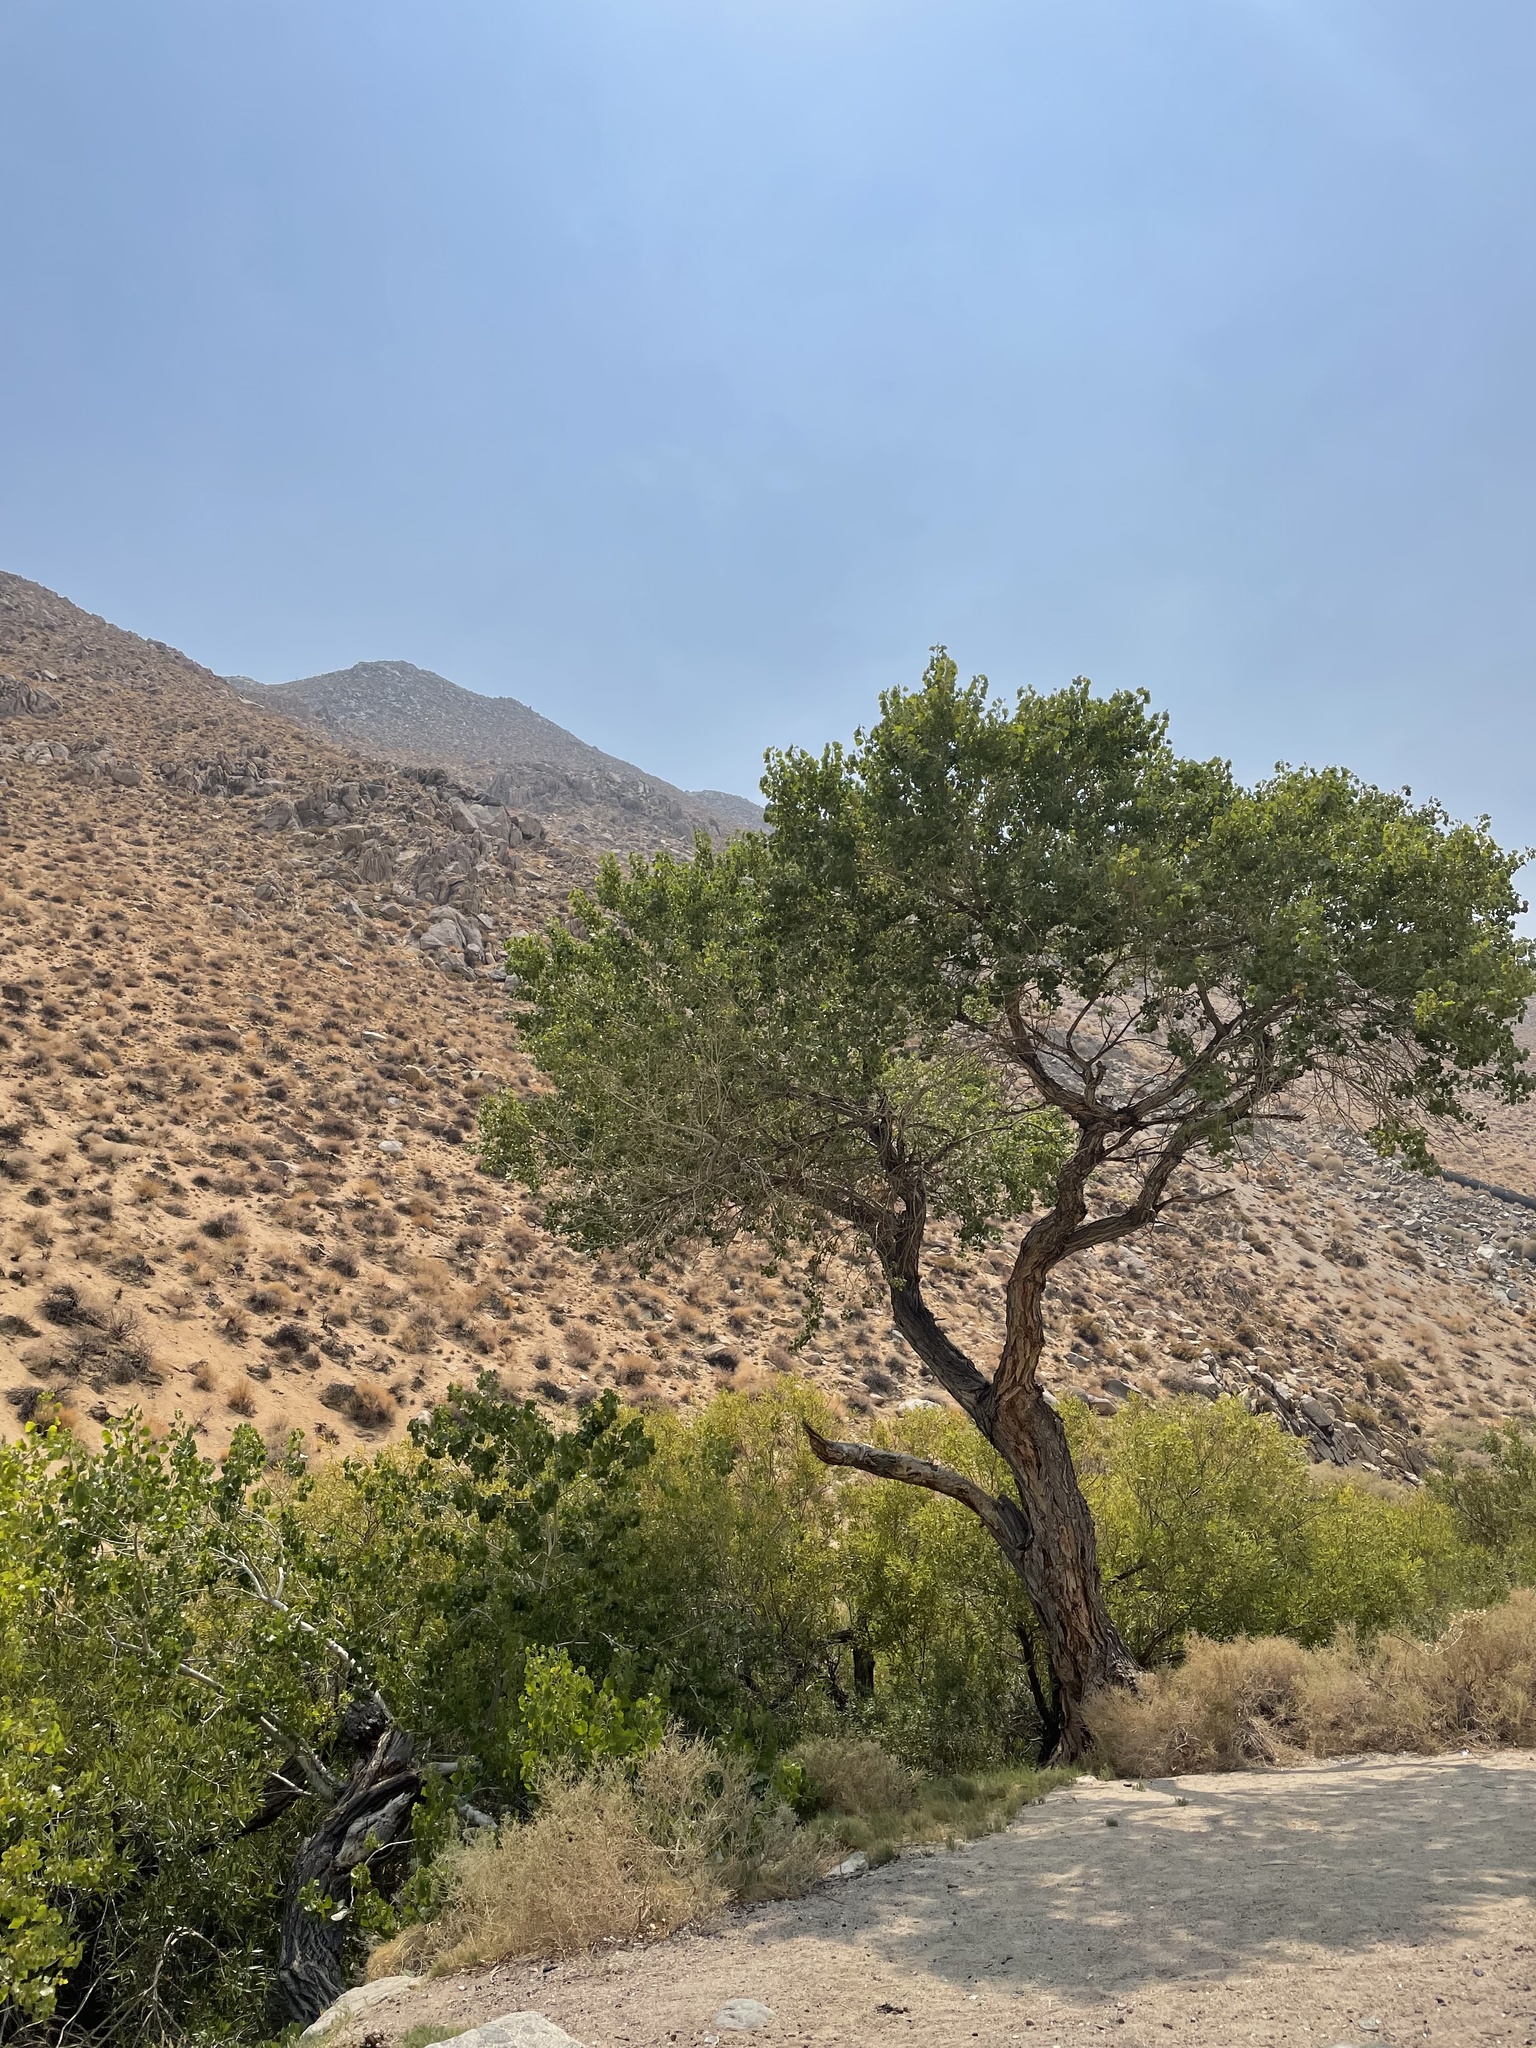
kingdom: Plantae
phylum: Tracheophyta
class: Magnoliopsida
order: Malpighiales
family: Salicaceae
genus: Populus
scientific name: Populus fremontii
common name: Fremont's cottonwood
